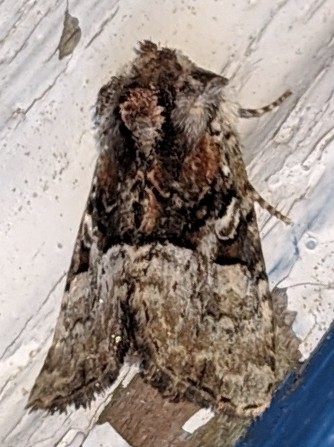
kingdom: Animalia
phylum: Arthropoda
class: Insecta
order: Lepidoptera
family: Noctuidae
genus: Meropleon
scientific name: Meropleon diversicolor
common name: Multicolored sedgeminer moth
